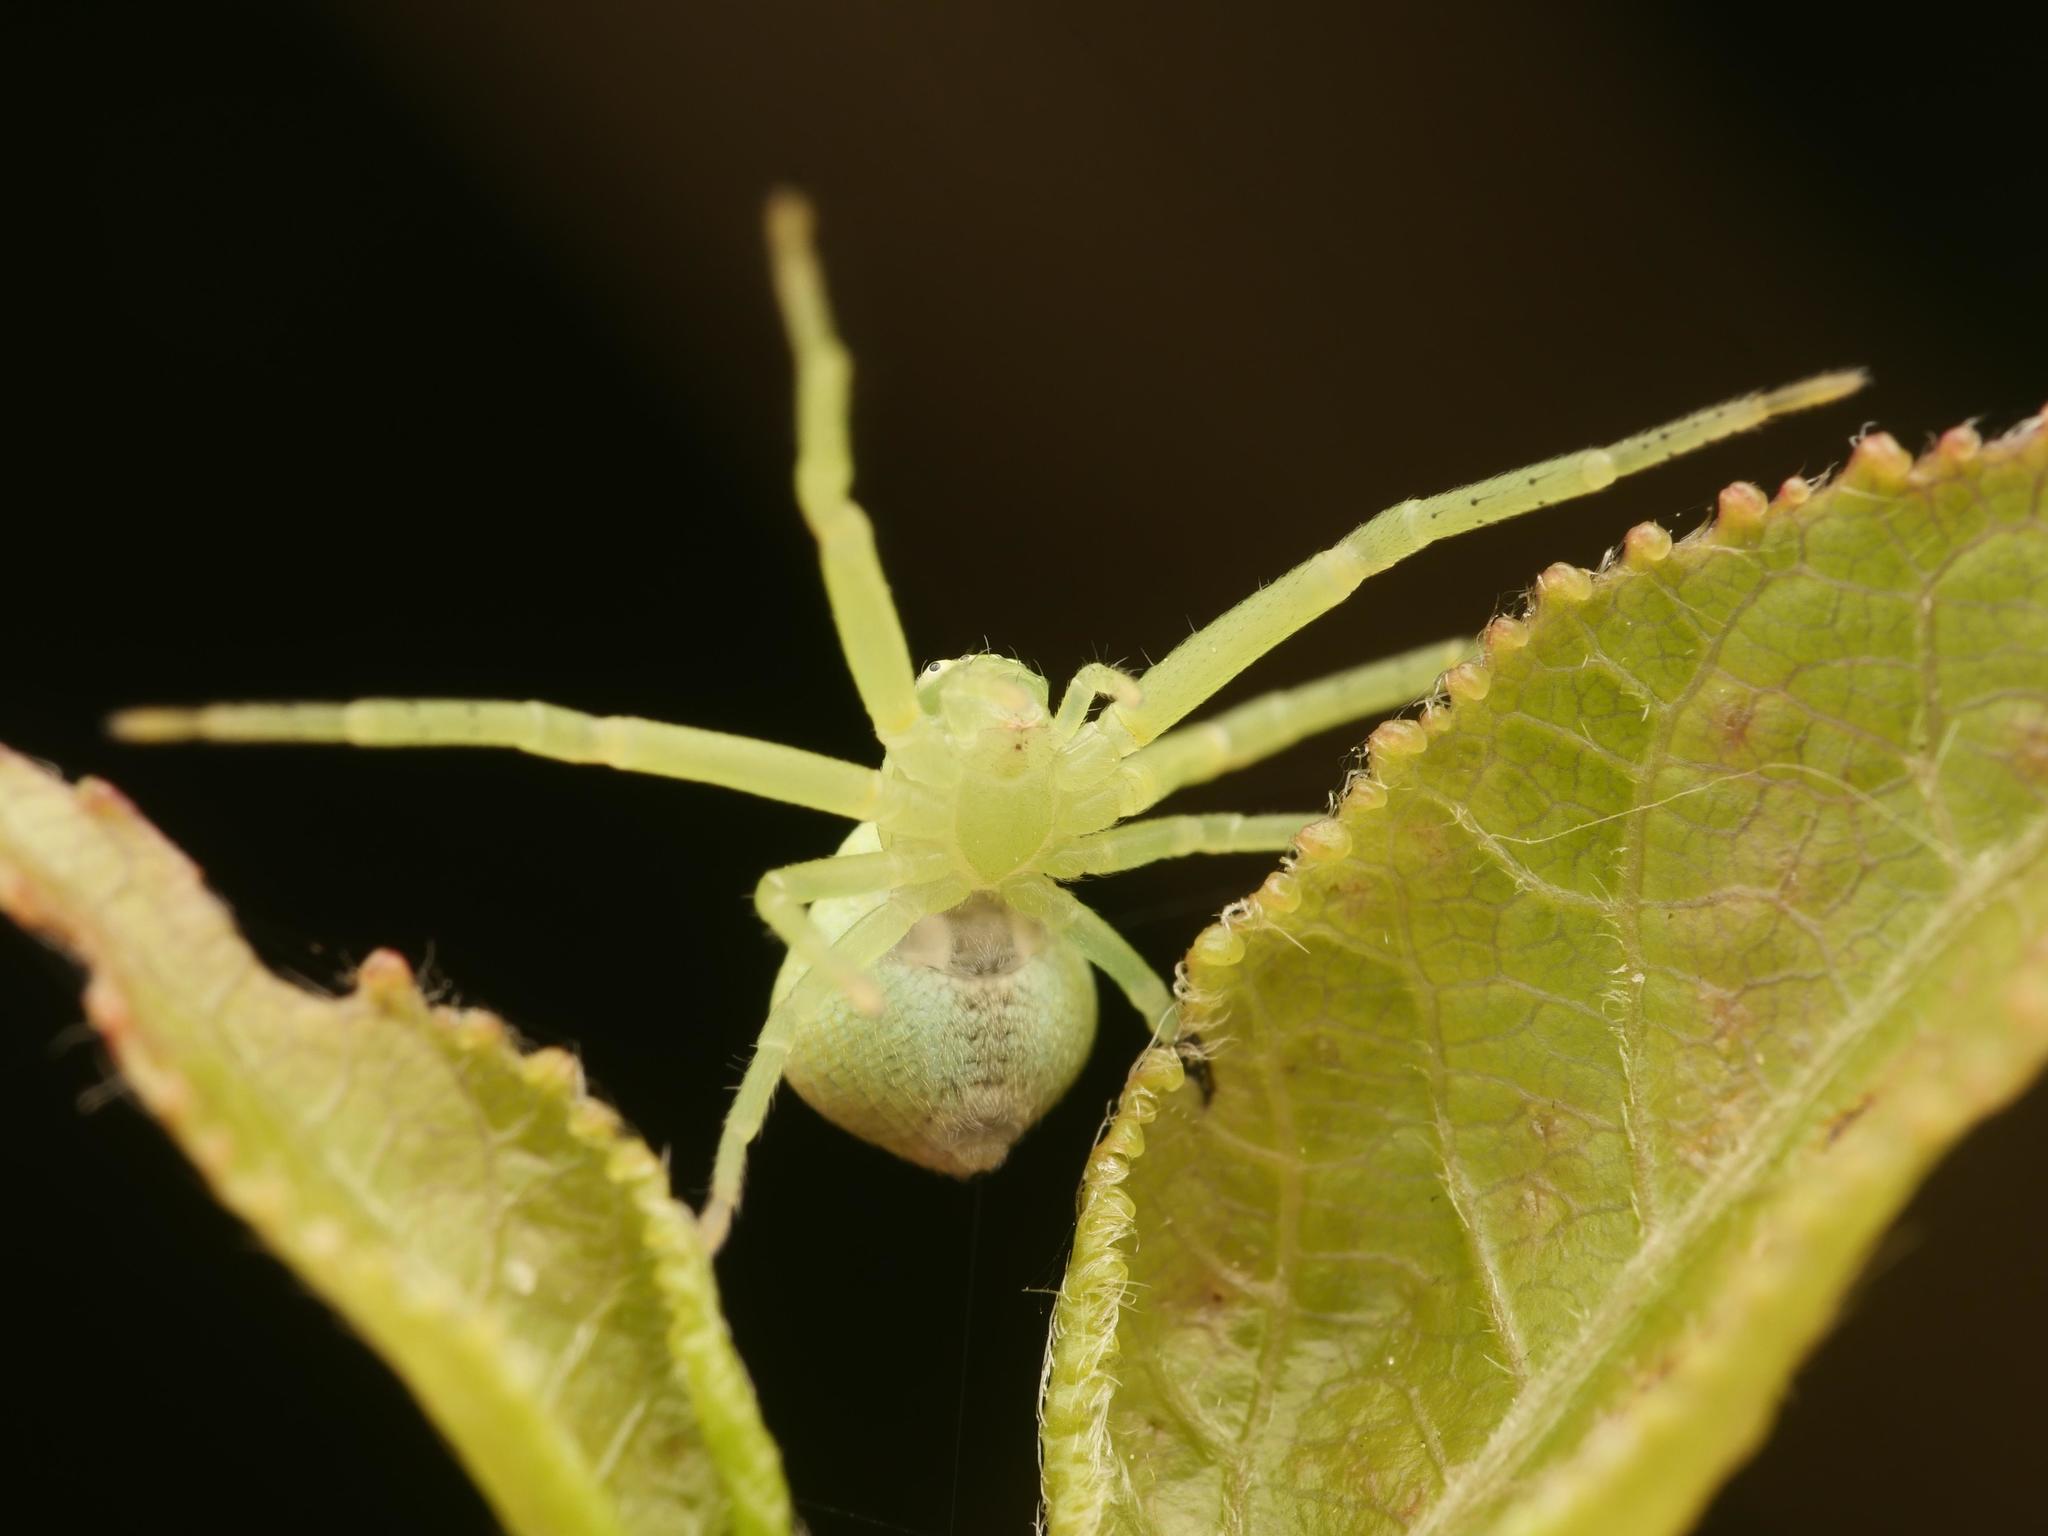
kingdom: Animalia
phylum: Arthropoda
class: Arachnida
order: Araneae
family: Thomisidae
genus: Ebrechtella
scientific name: Ebrechtella tricuspidata
